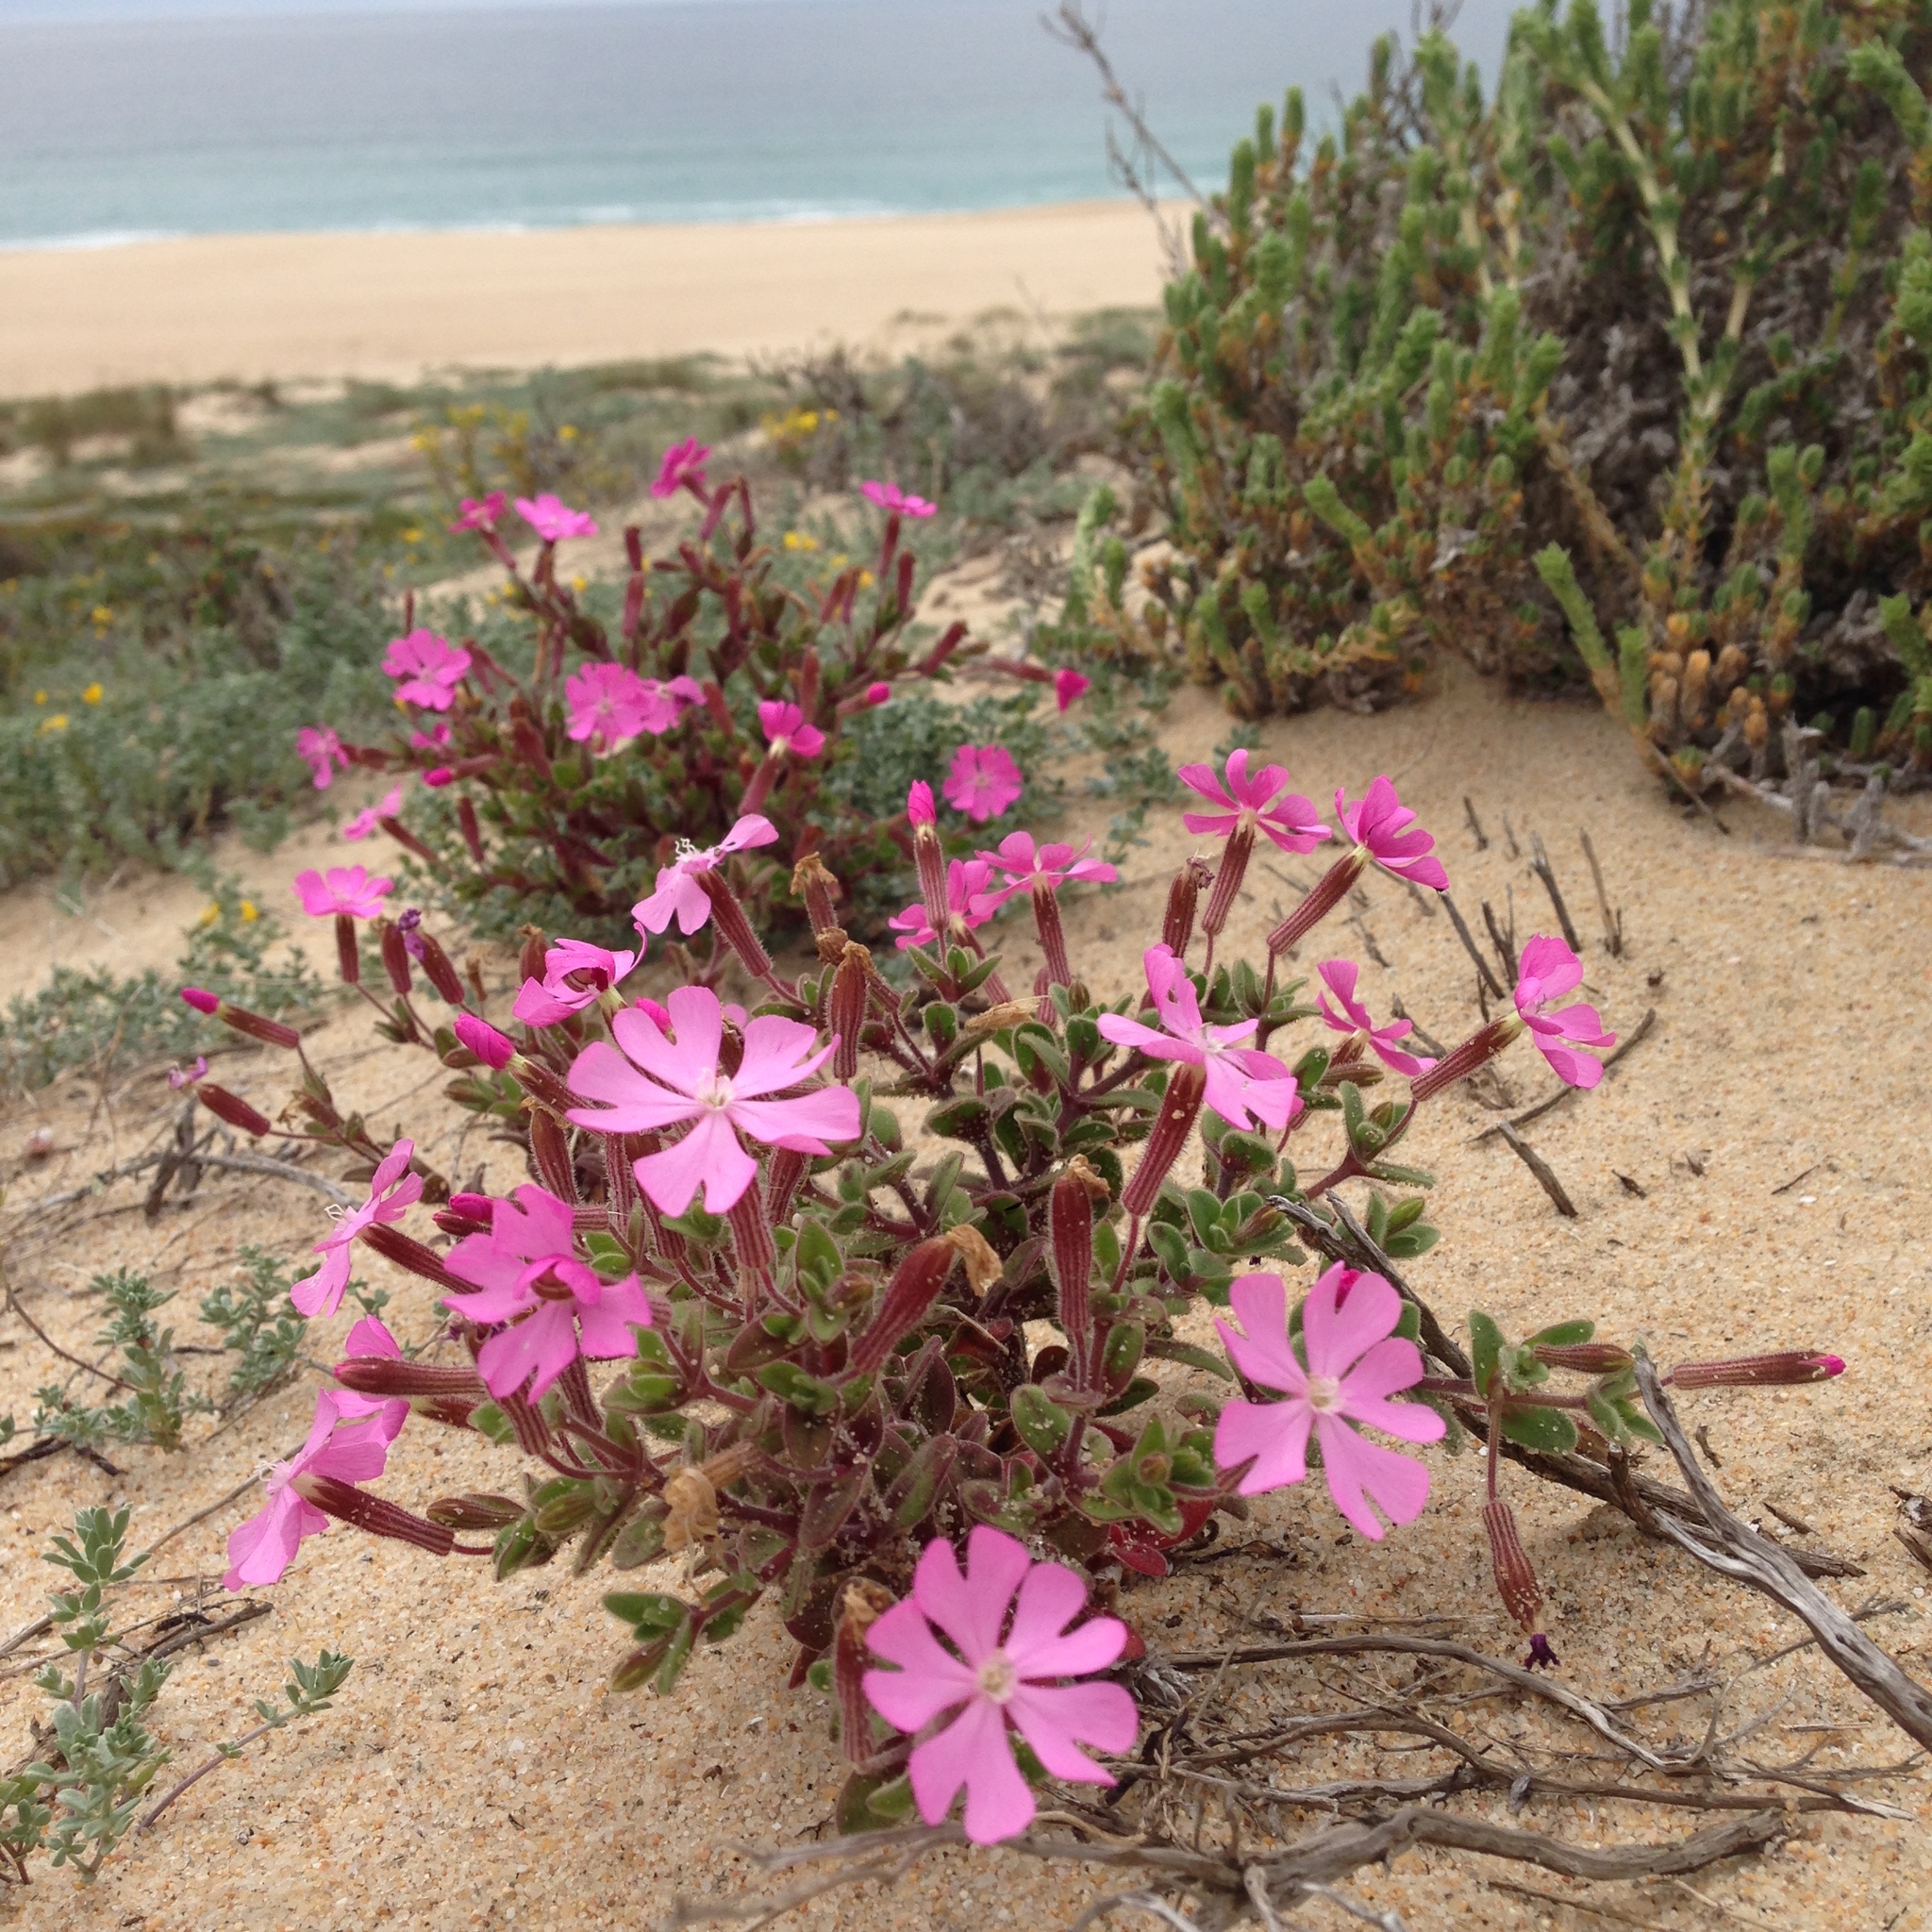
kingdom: Plantae
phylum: Tracheophyta
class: Magnoliopsida
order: Caryophyllales
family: Caryophyllaceae
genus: Silene
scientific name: Silene littorea
